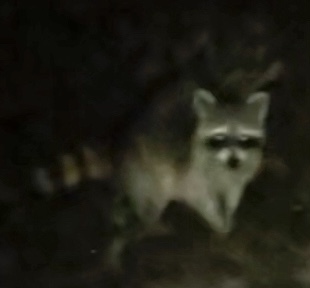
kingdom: Animalia
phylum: Chordata
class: Mammalia
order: Carnivora
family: Procyonidae
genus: Procyon
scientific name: Procyon lotor
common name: Raccoon
